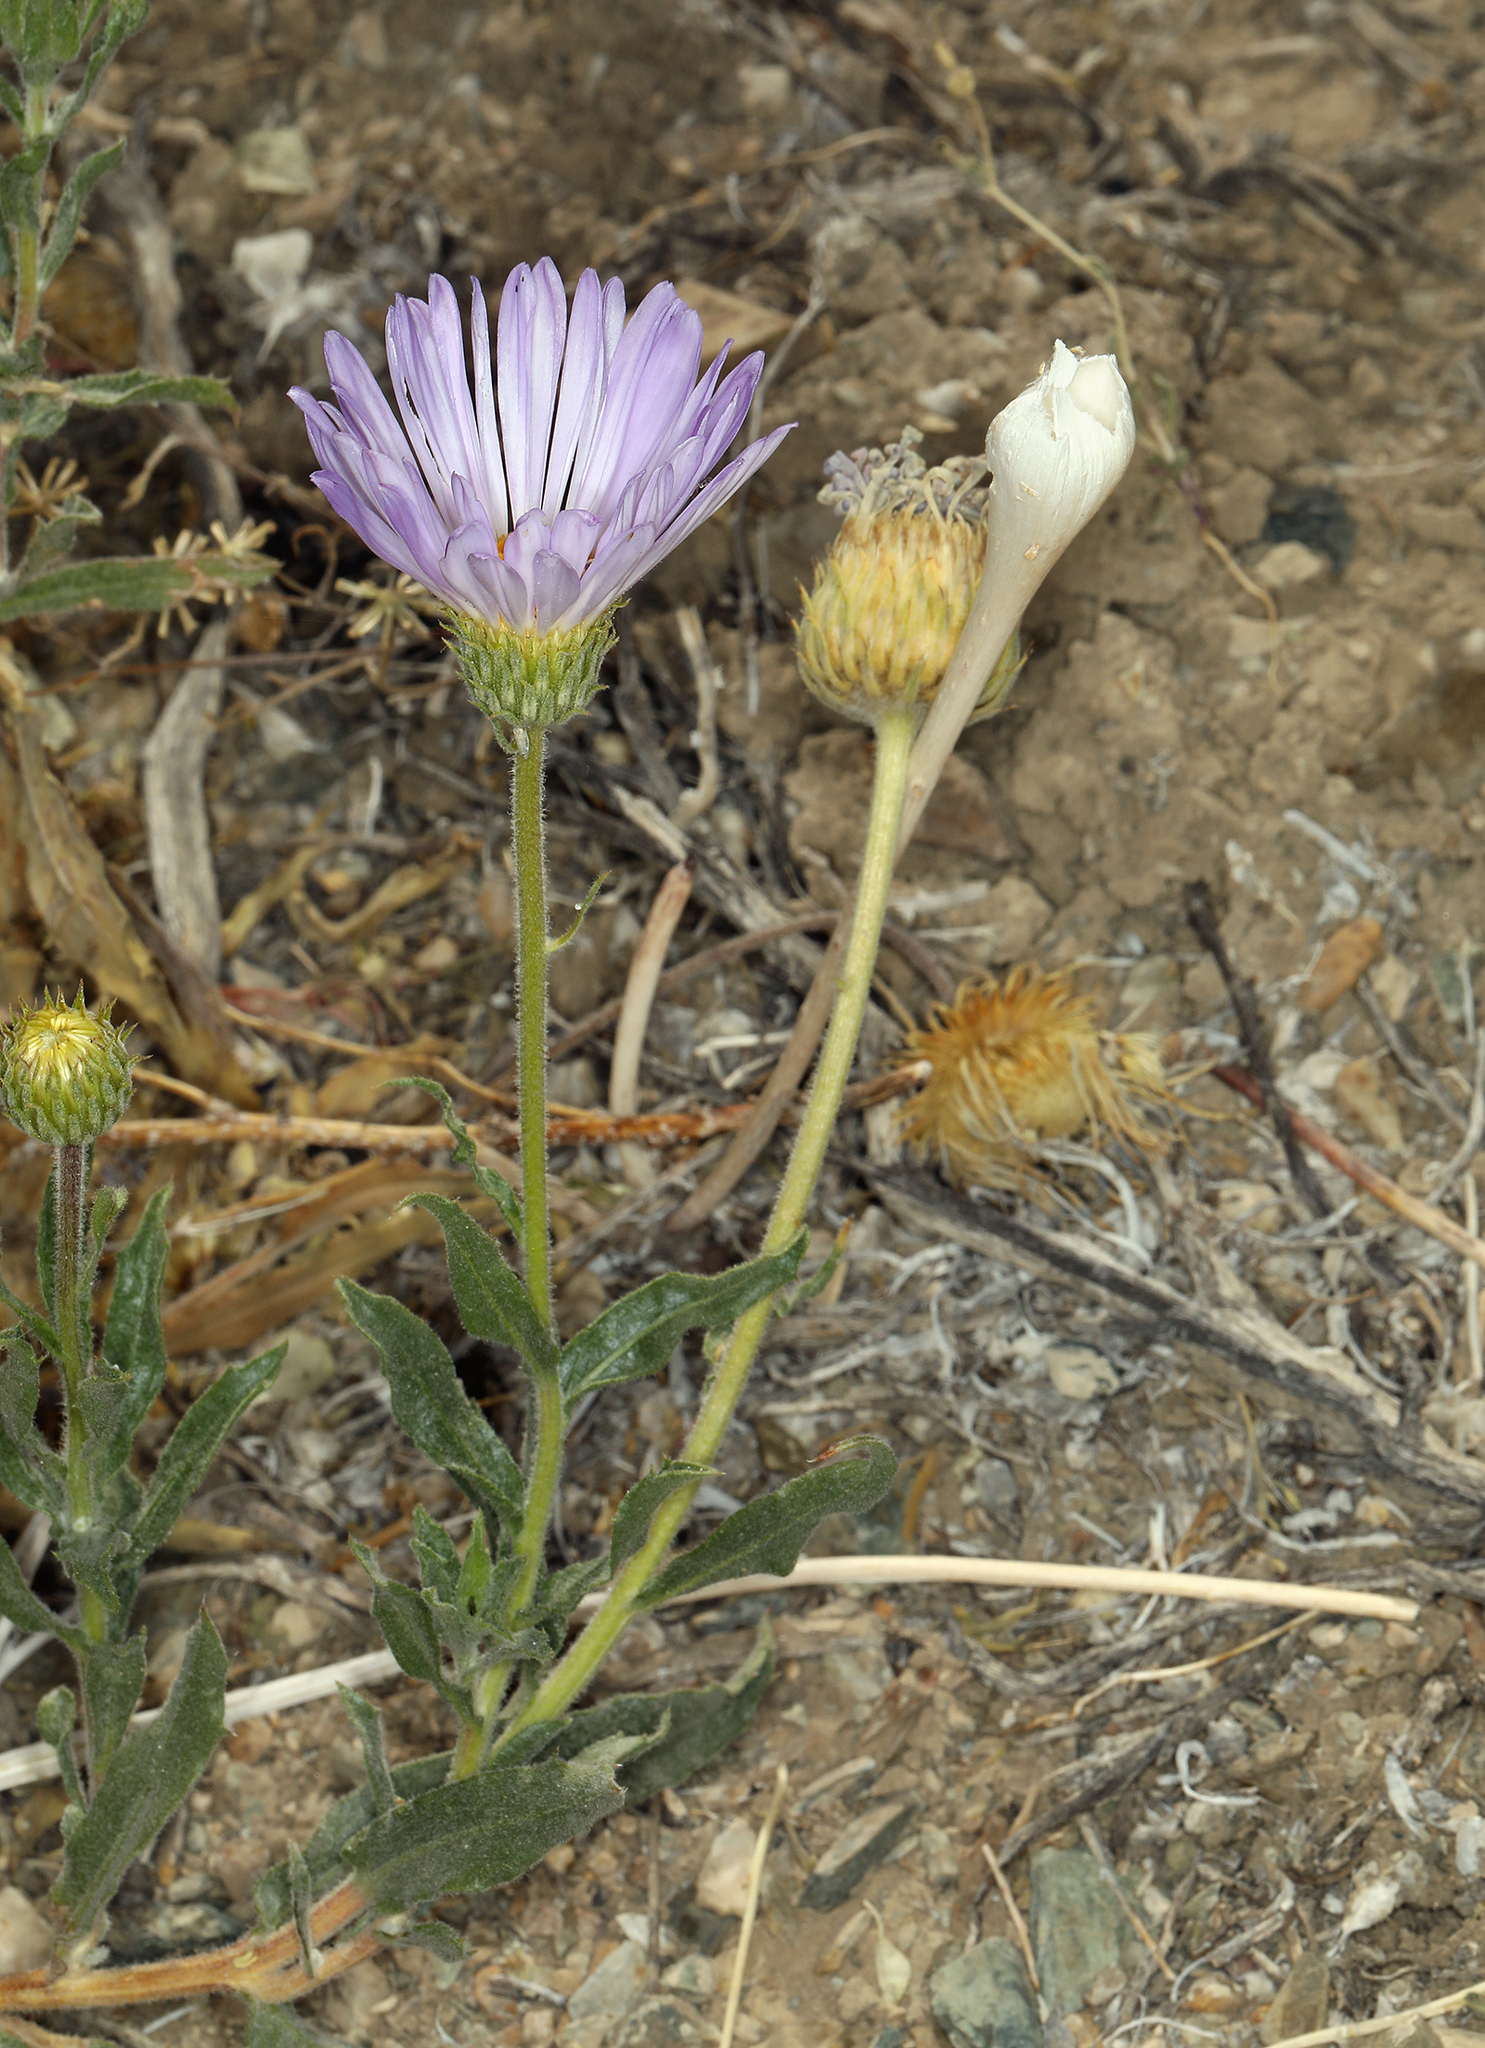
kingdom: Plantae
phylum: Tracheophyta
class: Magnoliopsida
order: Asterales
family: Asteraceae
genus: Xylorhiza
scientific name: Xylorhiza tortifolia
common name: Hurt-leaf woody-aster
